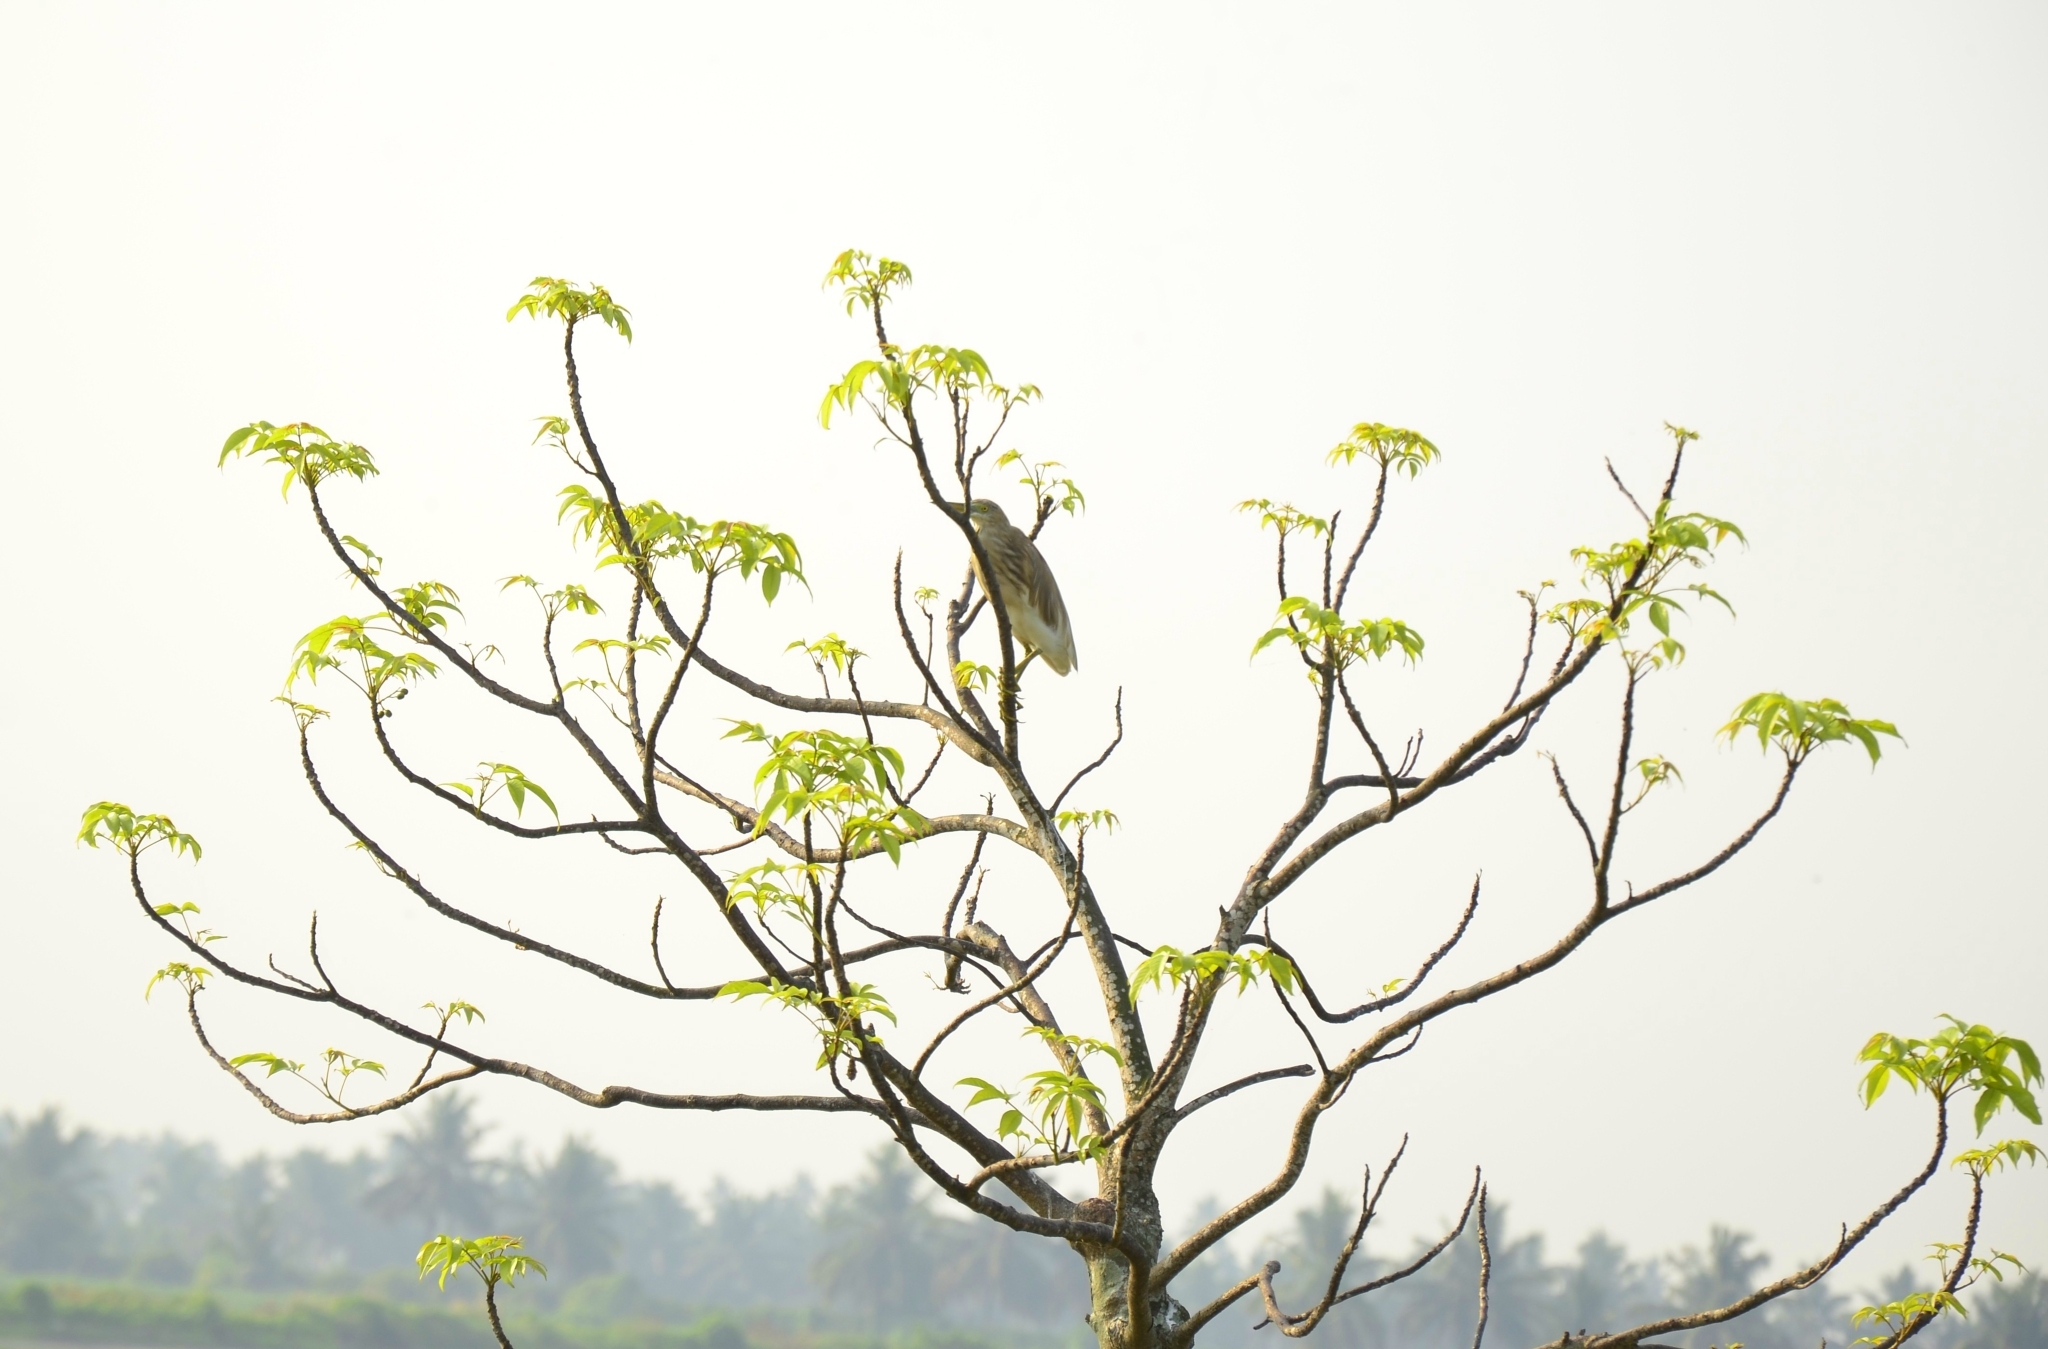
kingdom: Animalia
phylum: Chordata
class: Aves
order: Pelecaniformes
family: Ardeidae
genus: Ardeola
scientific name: Ardeola grayii
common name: Indian pond heron
